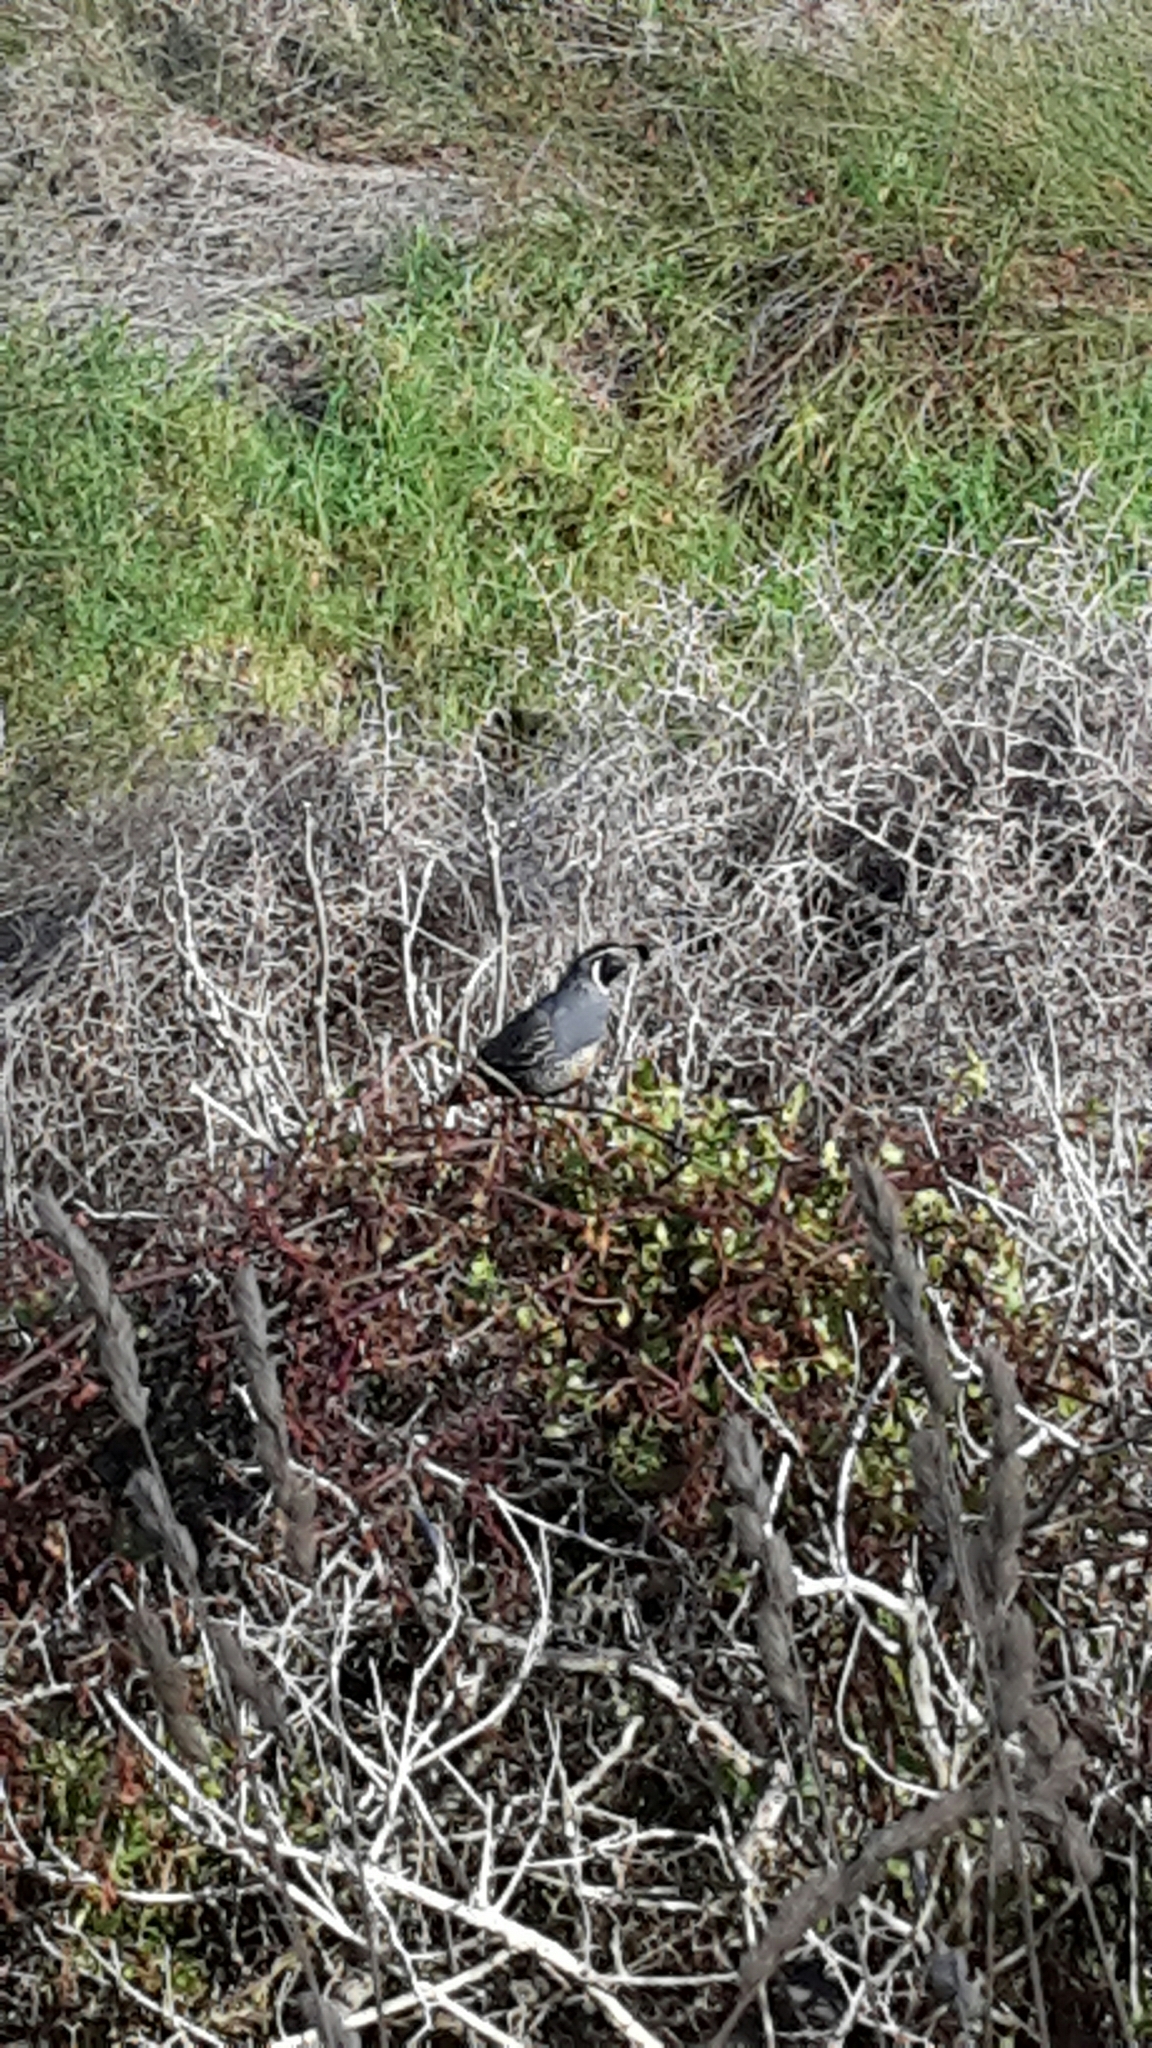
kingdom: Animalia
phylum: Chordata
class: Aves
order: Galliformes
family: Odontophoridae
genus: Callipepla
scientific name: Callipepla californica
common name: California quail
